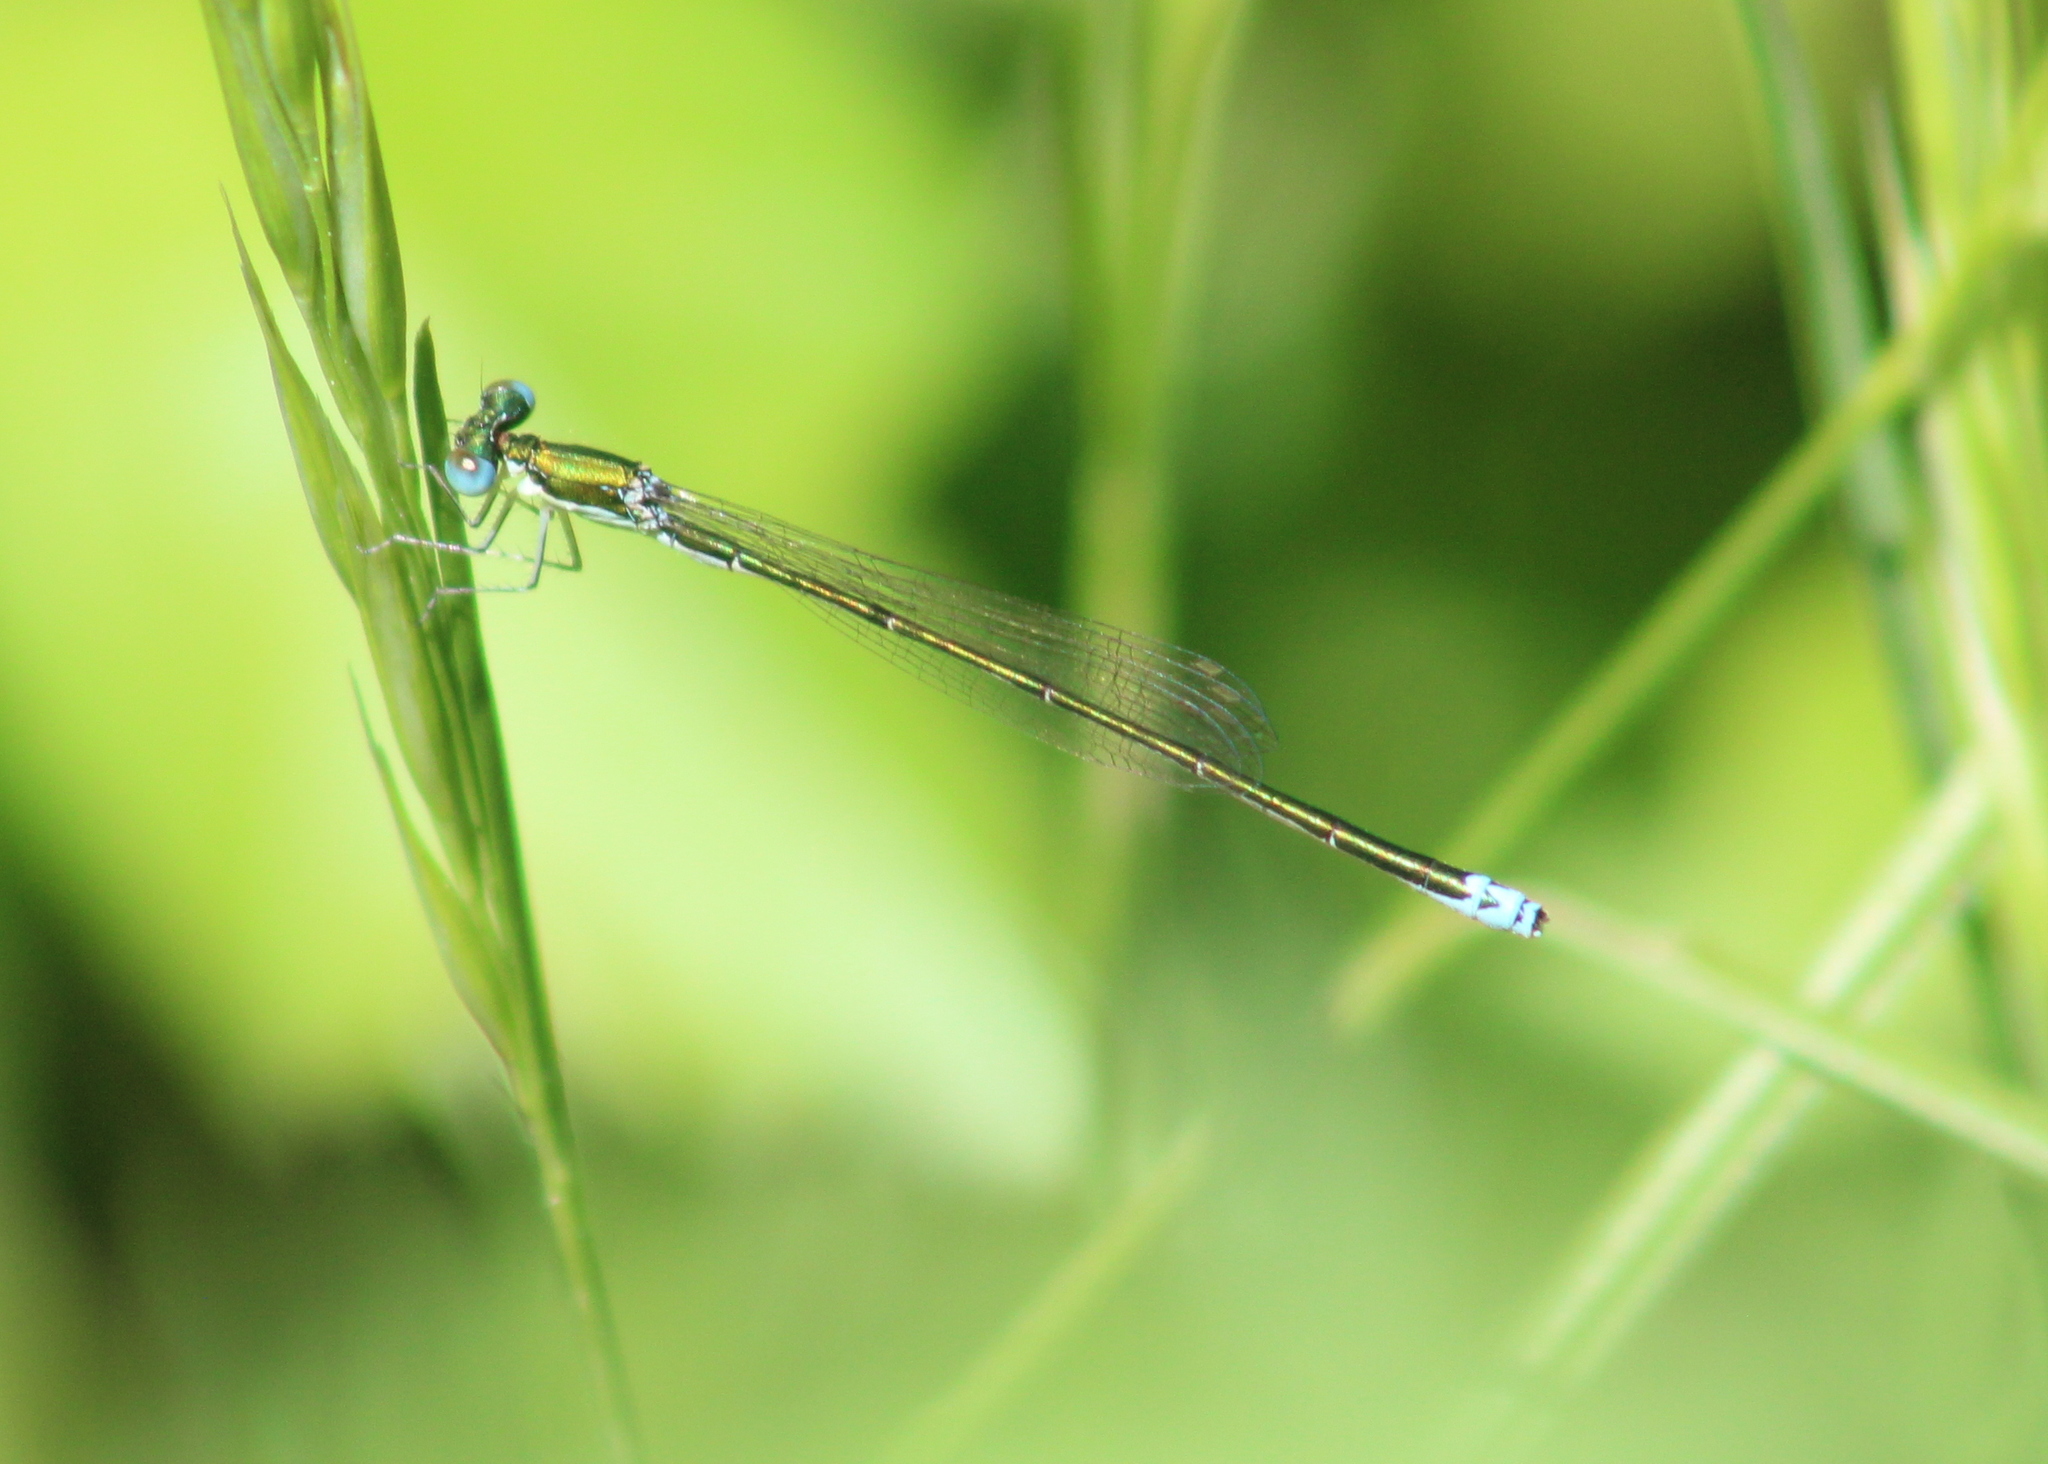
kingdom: Animalia
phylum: Arthropoda
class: Insecta
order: Odonata
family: Coenagrionidae
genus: Nehalennia
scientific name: Nehalennia irene
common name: Sedge sprite
